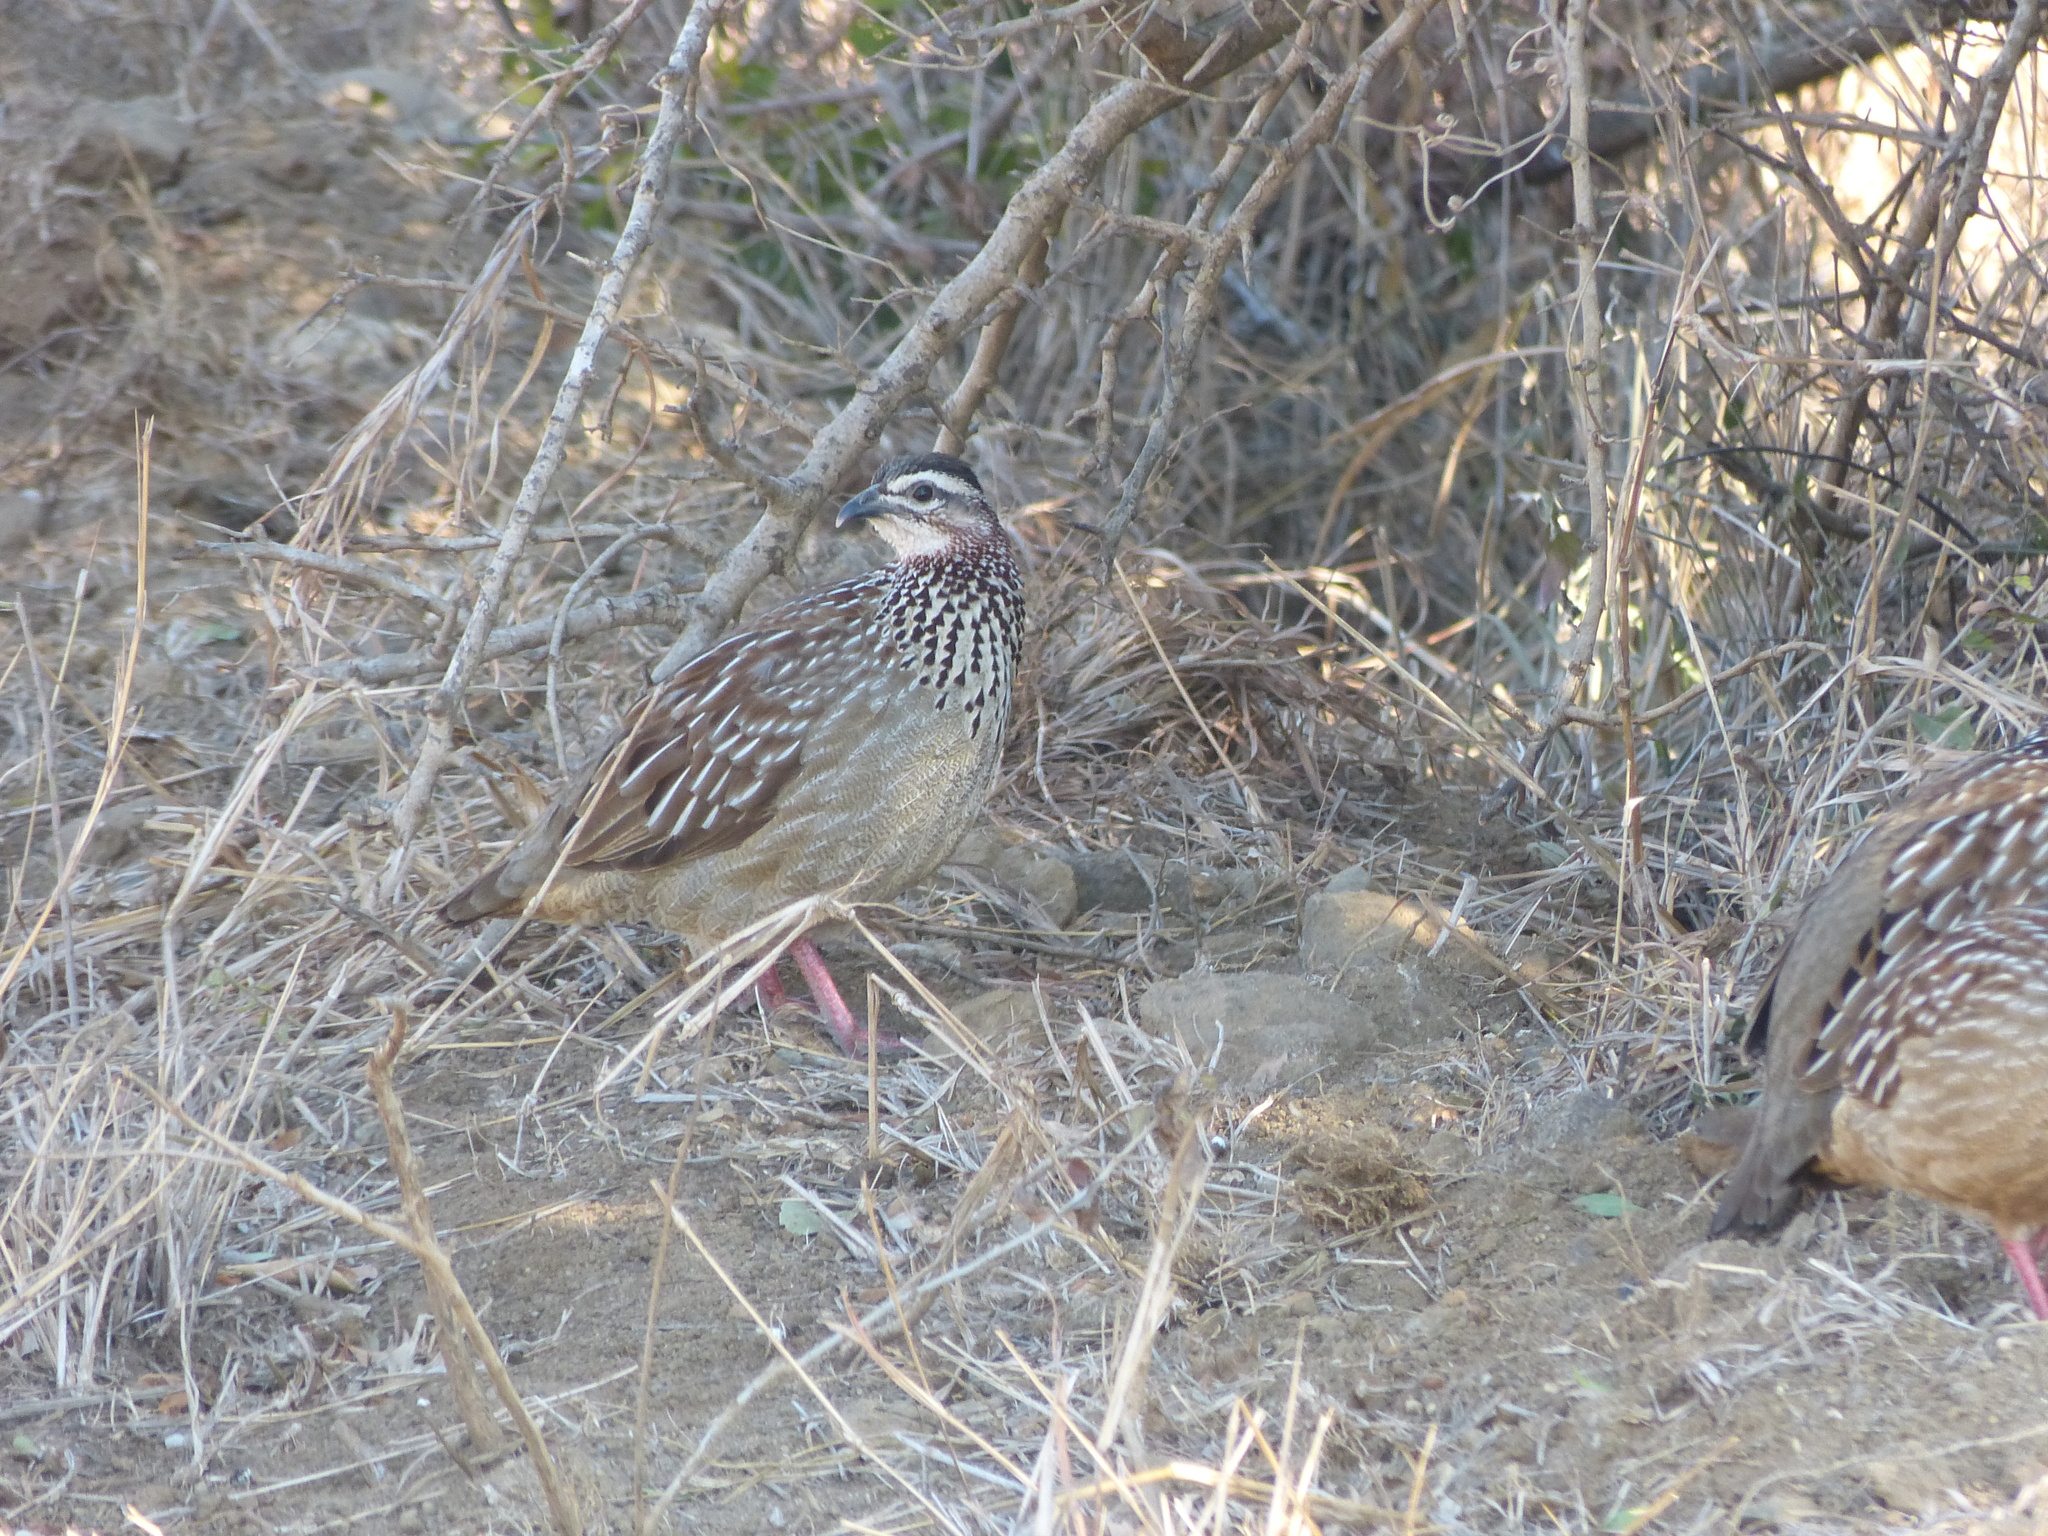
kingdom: Animalia
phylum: Chordata
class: Aves
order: Galliformes
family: Phasianidae
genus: Ortygornis
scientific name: Ortygornis sephaena
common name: Crested francolin
